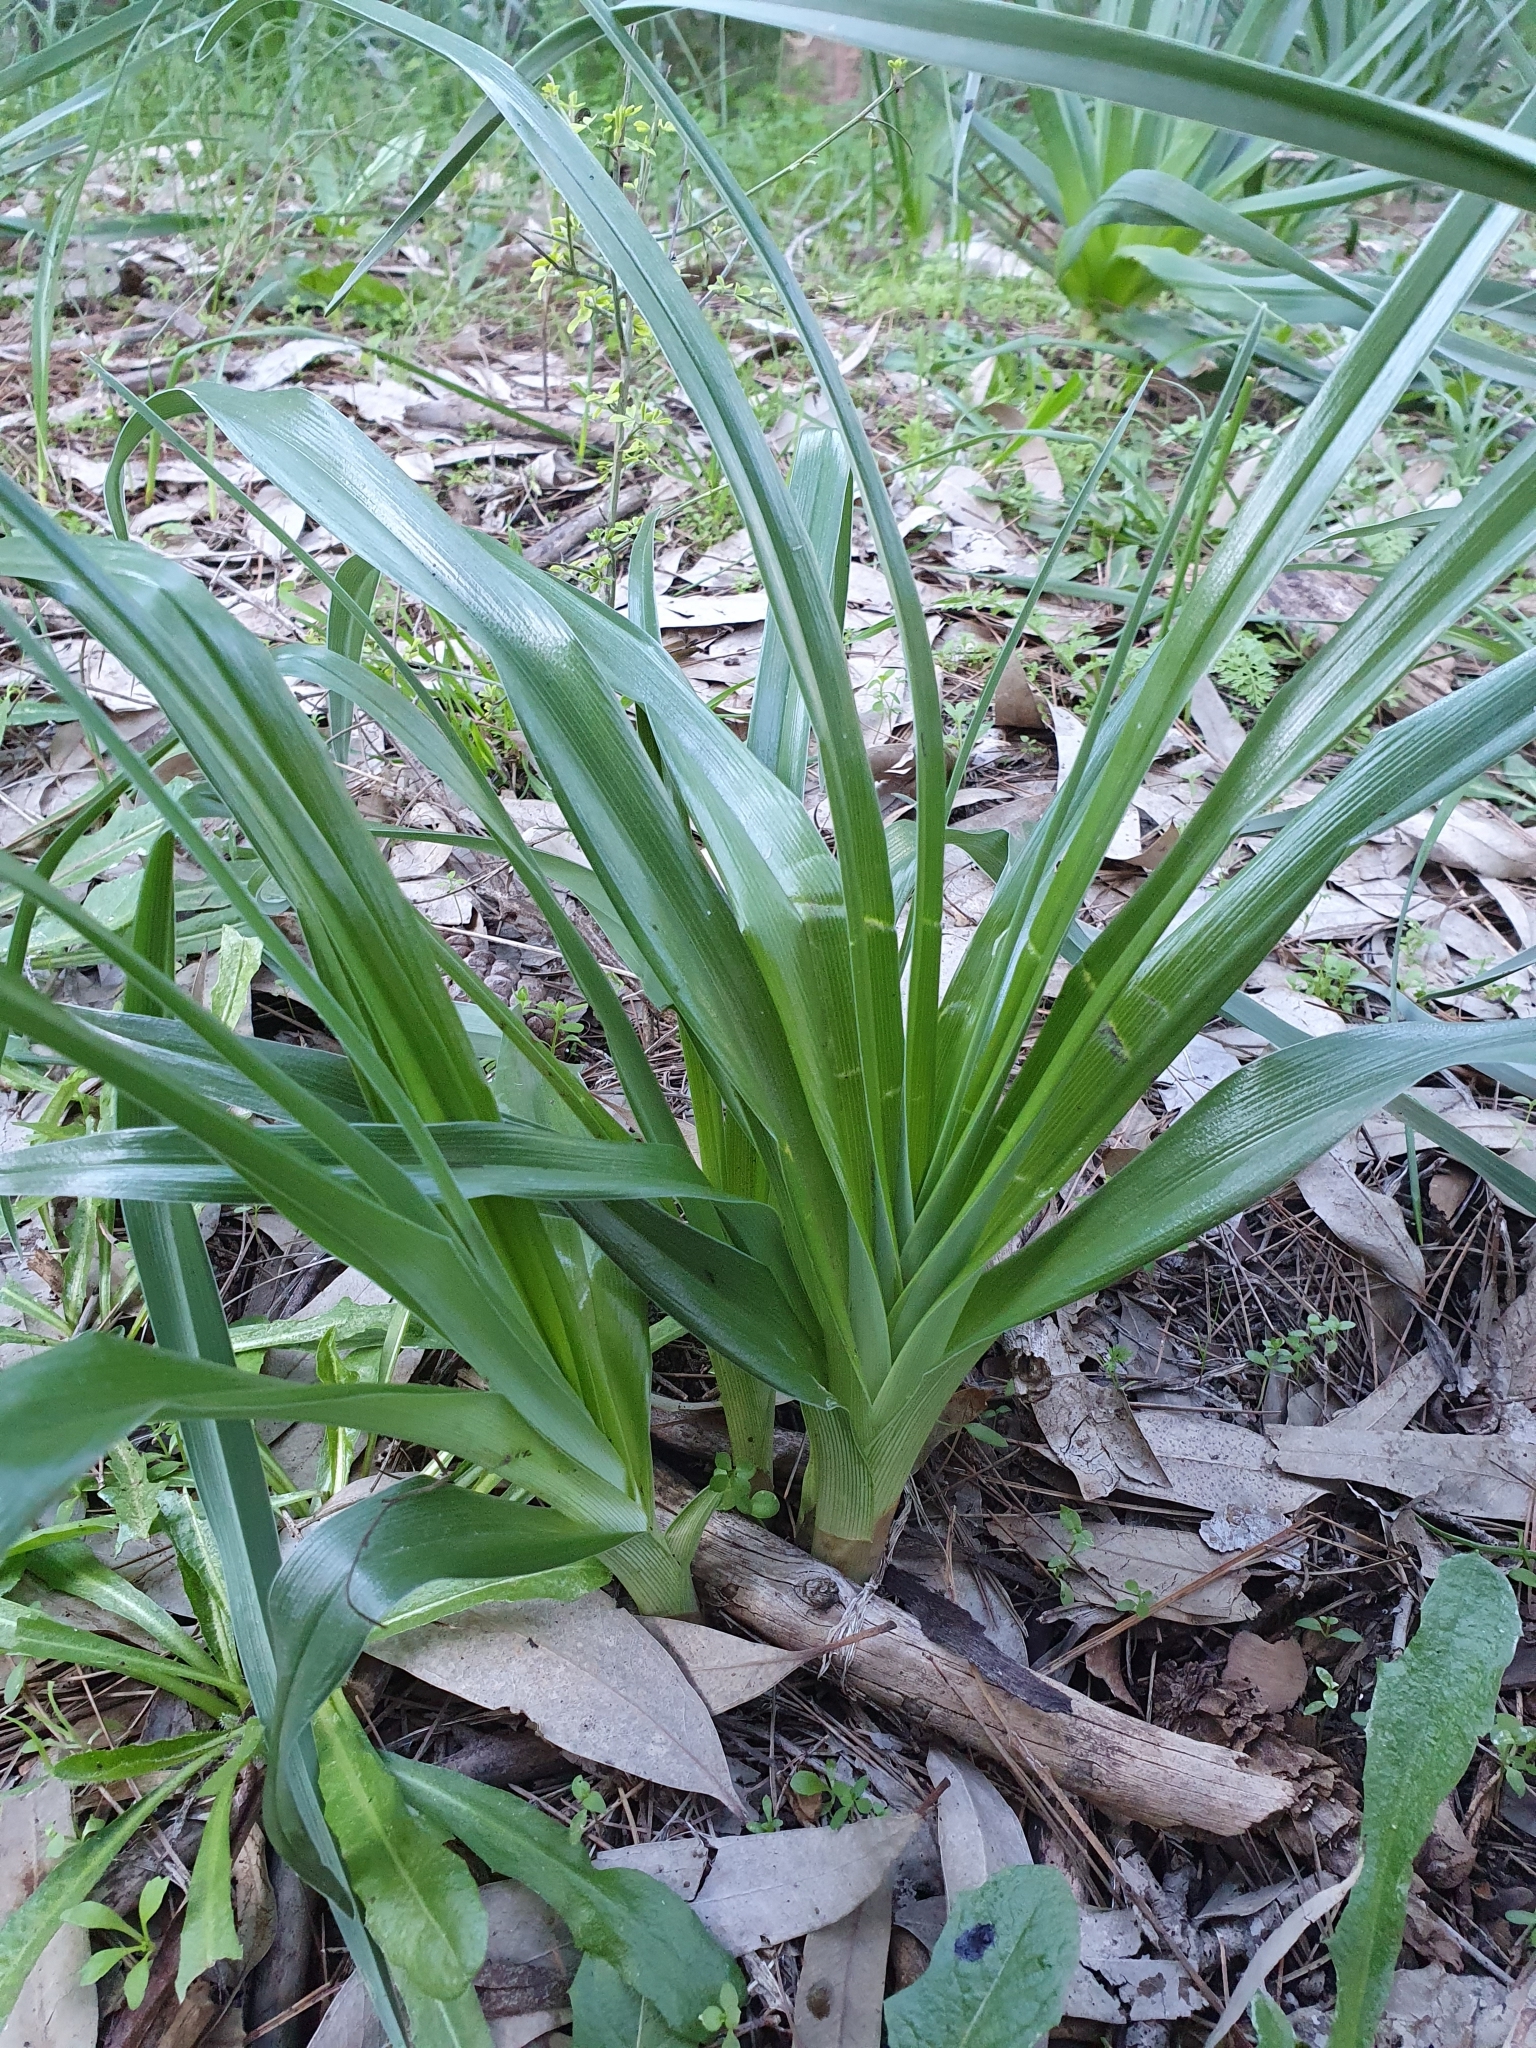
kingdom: Plantae
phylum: Tracheophyta
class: Liliopsida
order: Asparagales
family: Iridaceae
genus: Iris
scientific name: Iris planifolia
